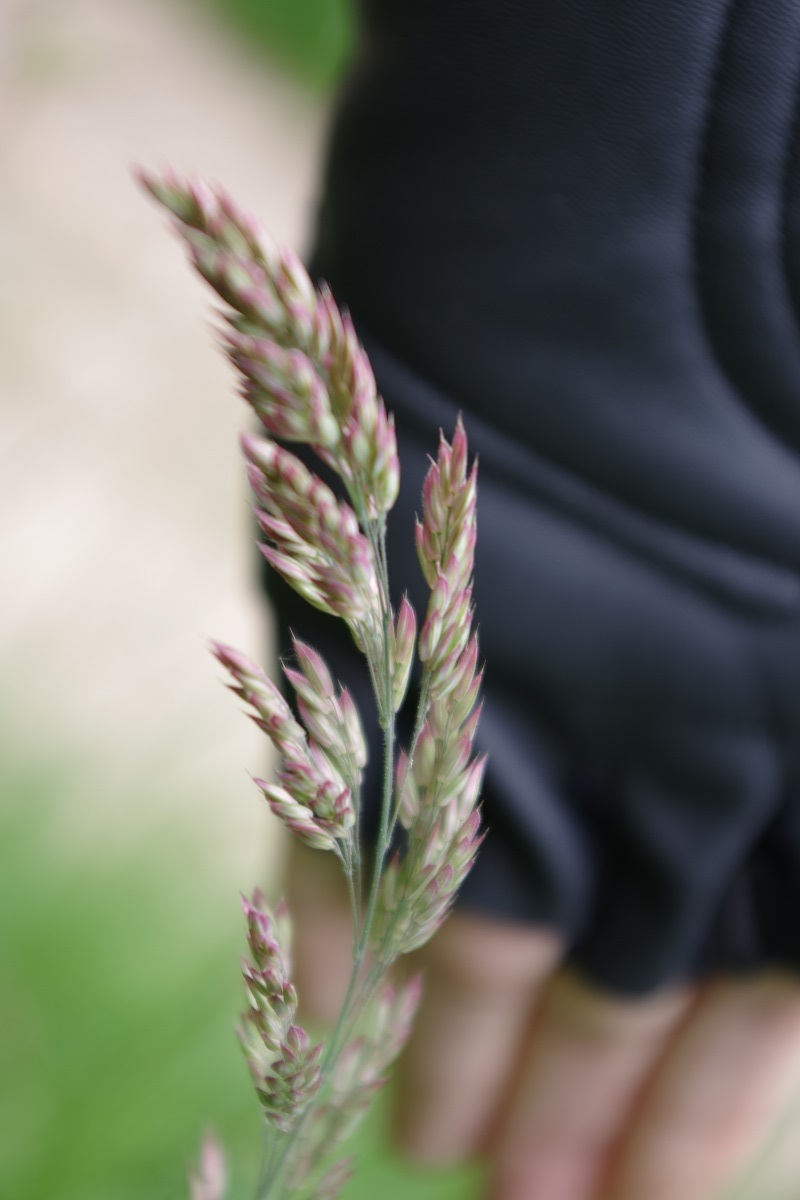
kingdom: Plantae
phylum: Tracheophyta
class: Liliopsida
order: Poales
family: Poaceae
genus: Holcus
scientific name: Holcus lanatus
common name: Yorkshire-fog
